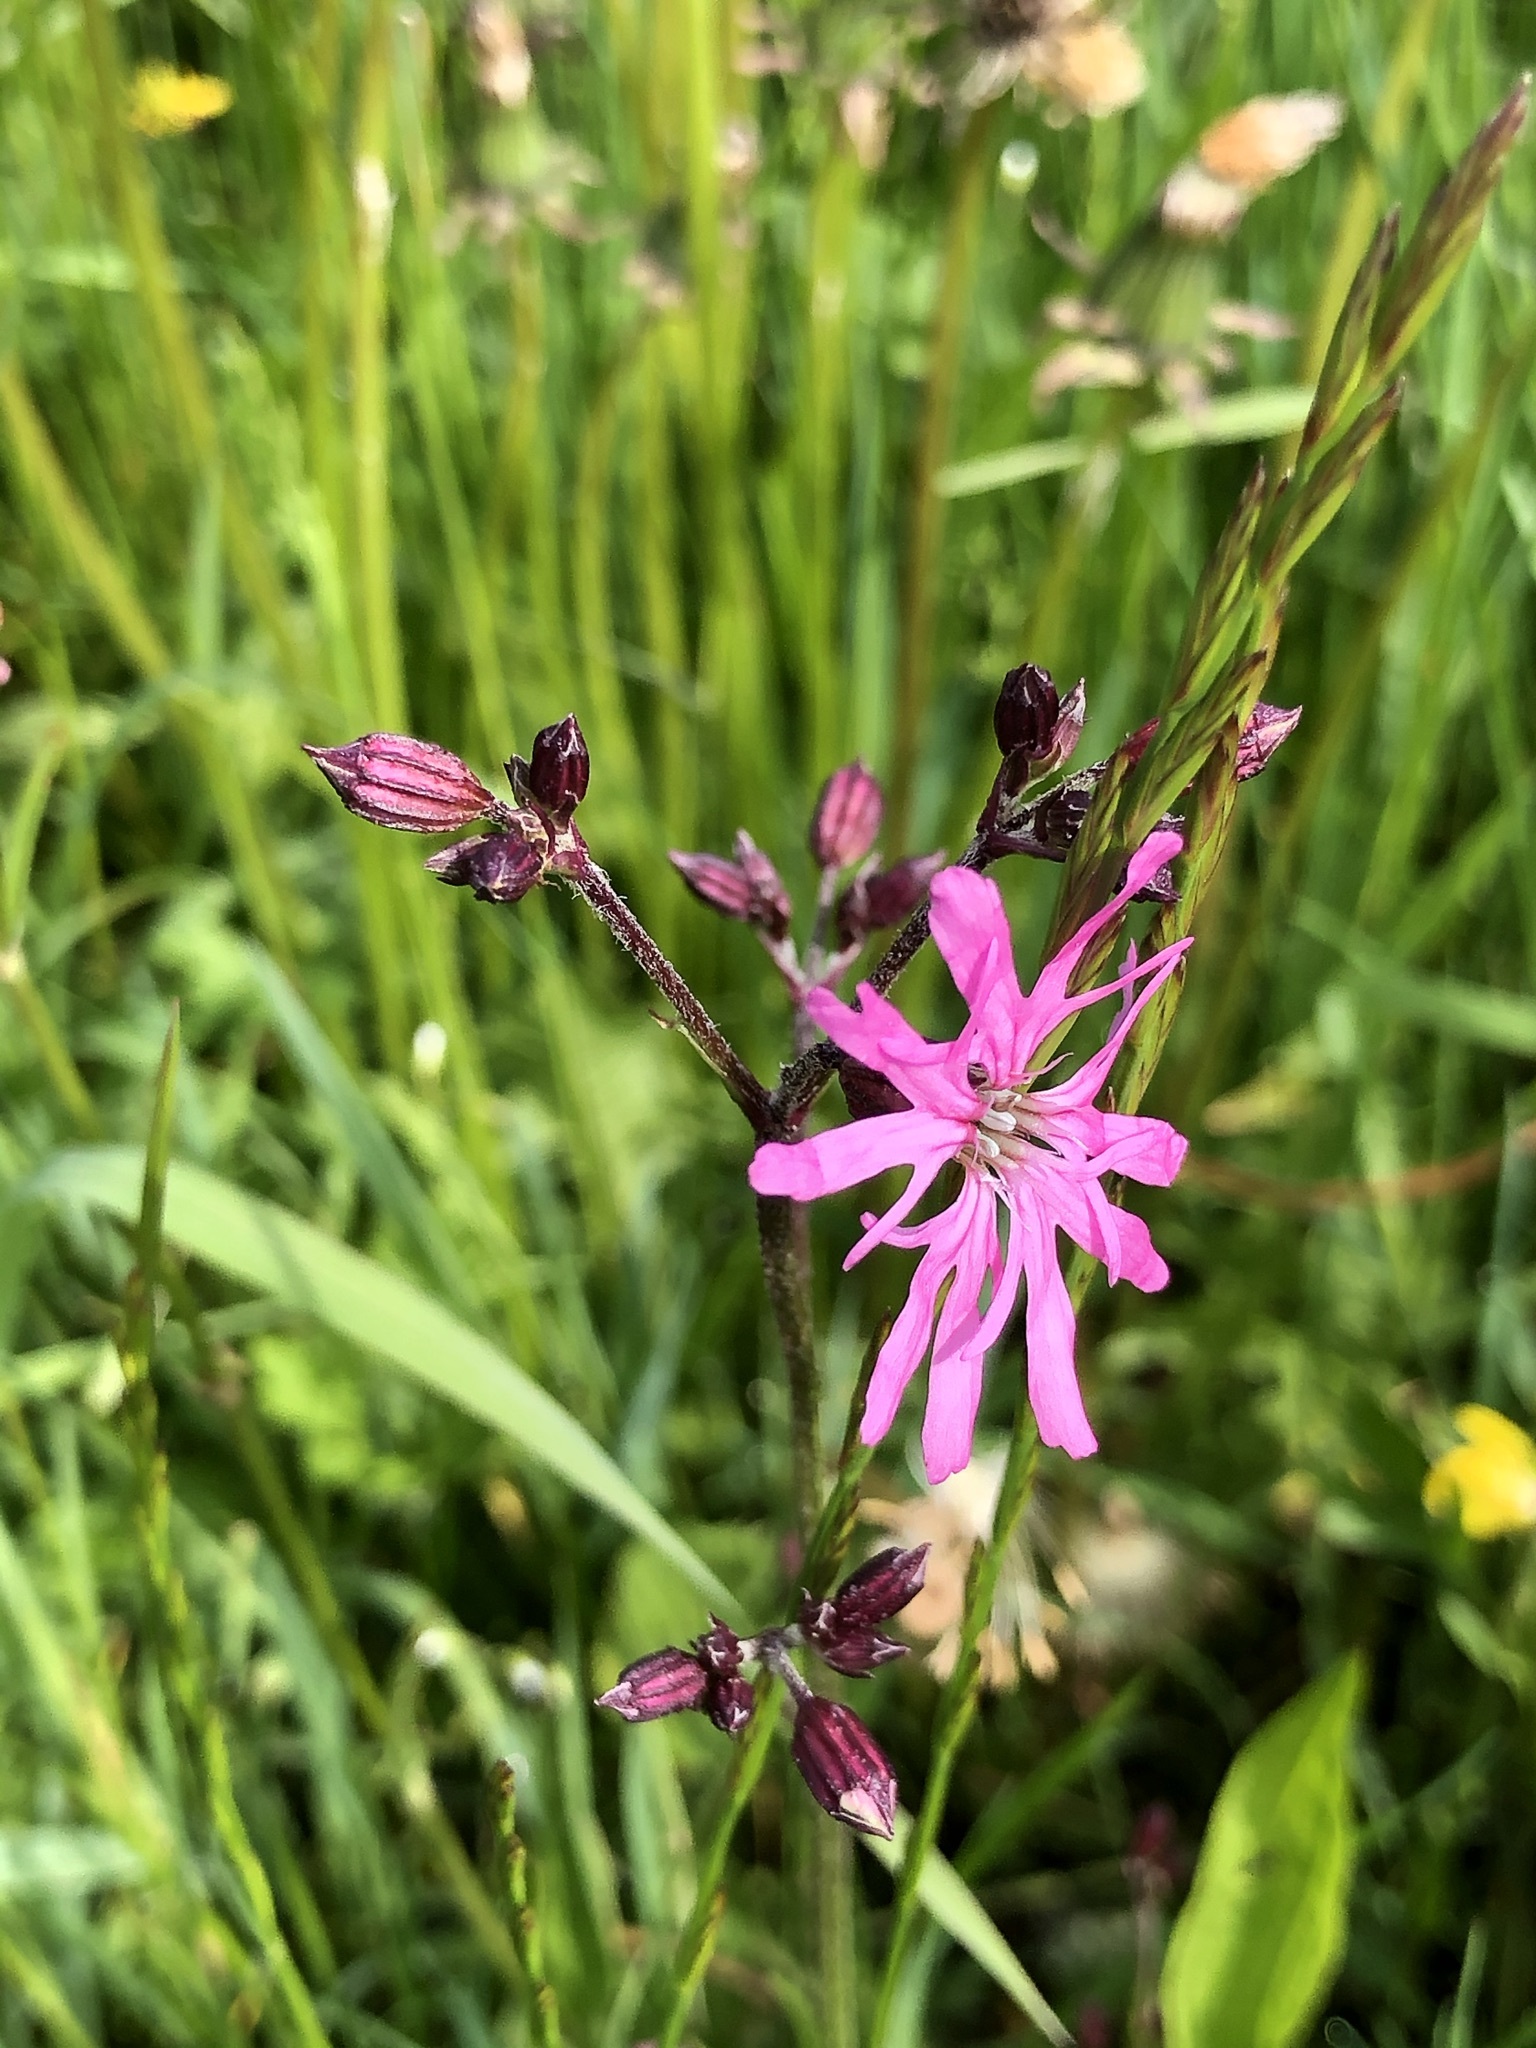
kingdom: Plantae
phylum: Tracheophyta
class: Magnoliopsida
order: Caryophyllales
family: Caryophyllaceae
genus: Silene
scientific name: Silene flos-cuculi
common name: Ragged-robin
